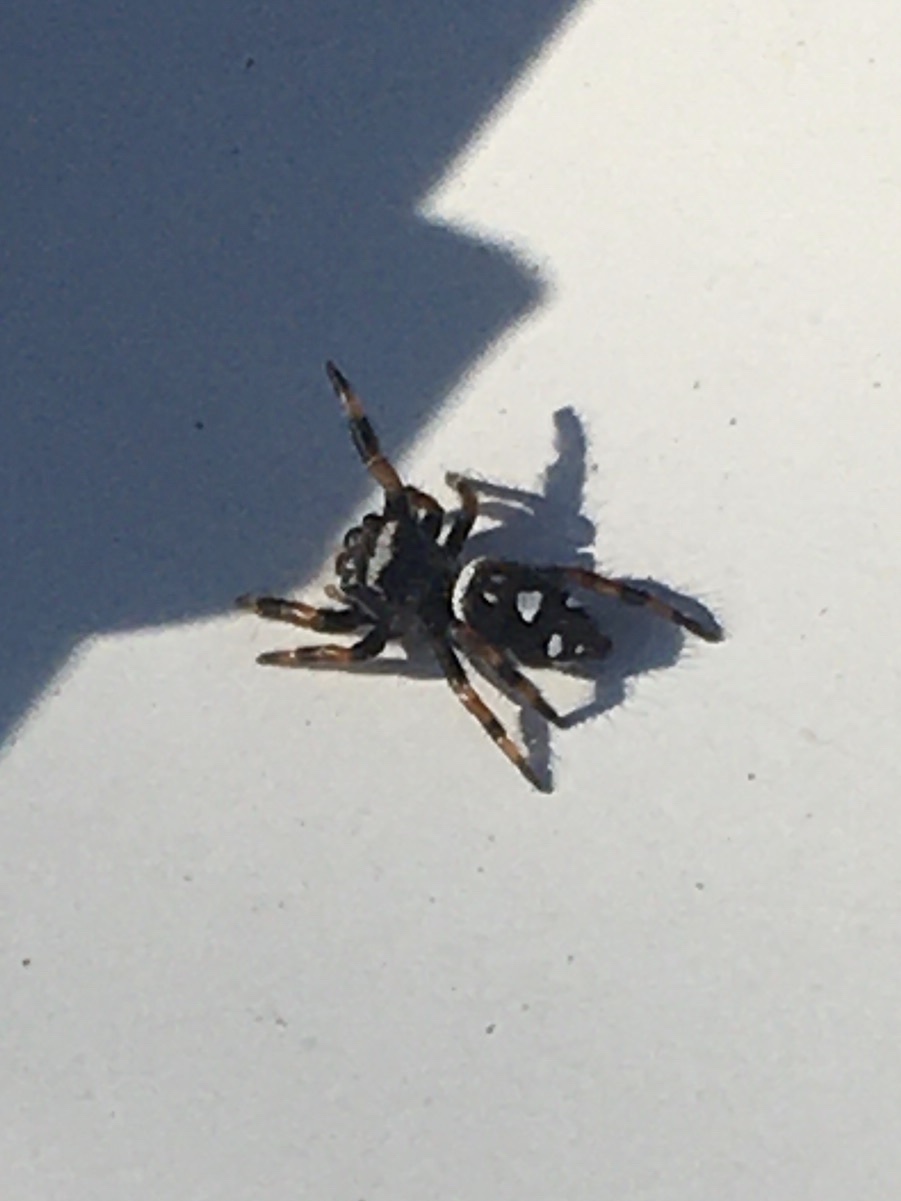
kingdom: Animalia
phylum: Arthropoda
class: Arachnida
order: Araneae
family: Salticidae
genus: Phidippus
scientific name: Phidippus regius
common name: Regal jumper
